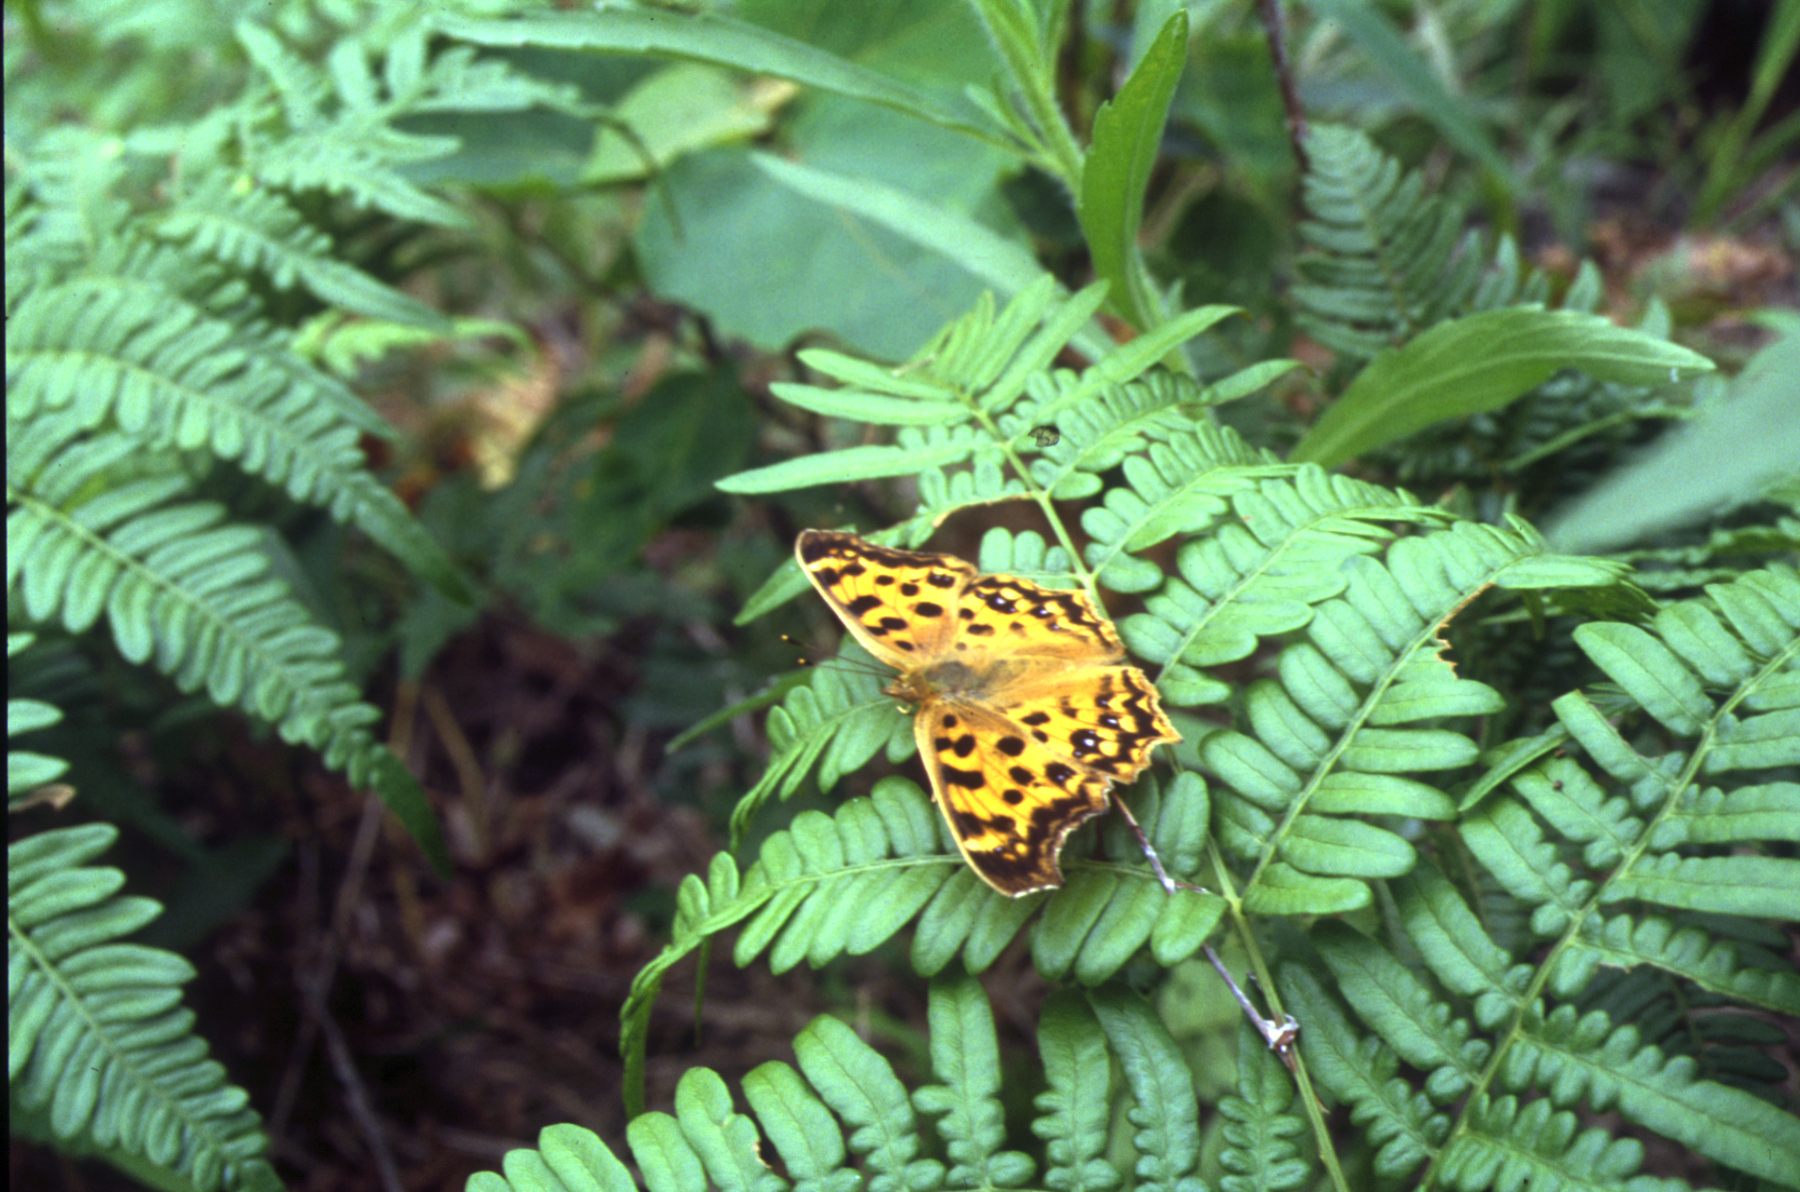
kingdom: Plantae
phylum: Tracheophyta
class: Polypodiopsida
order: Polypodiales
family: Dennstaedtiaceae
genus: Pteridium
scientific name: Pteridium aquilinum
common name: Bracken
